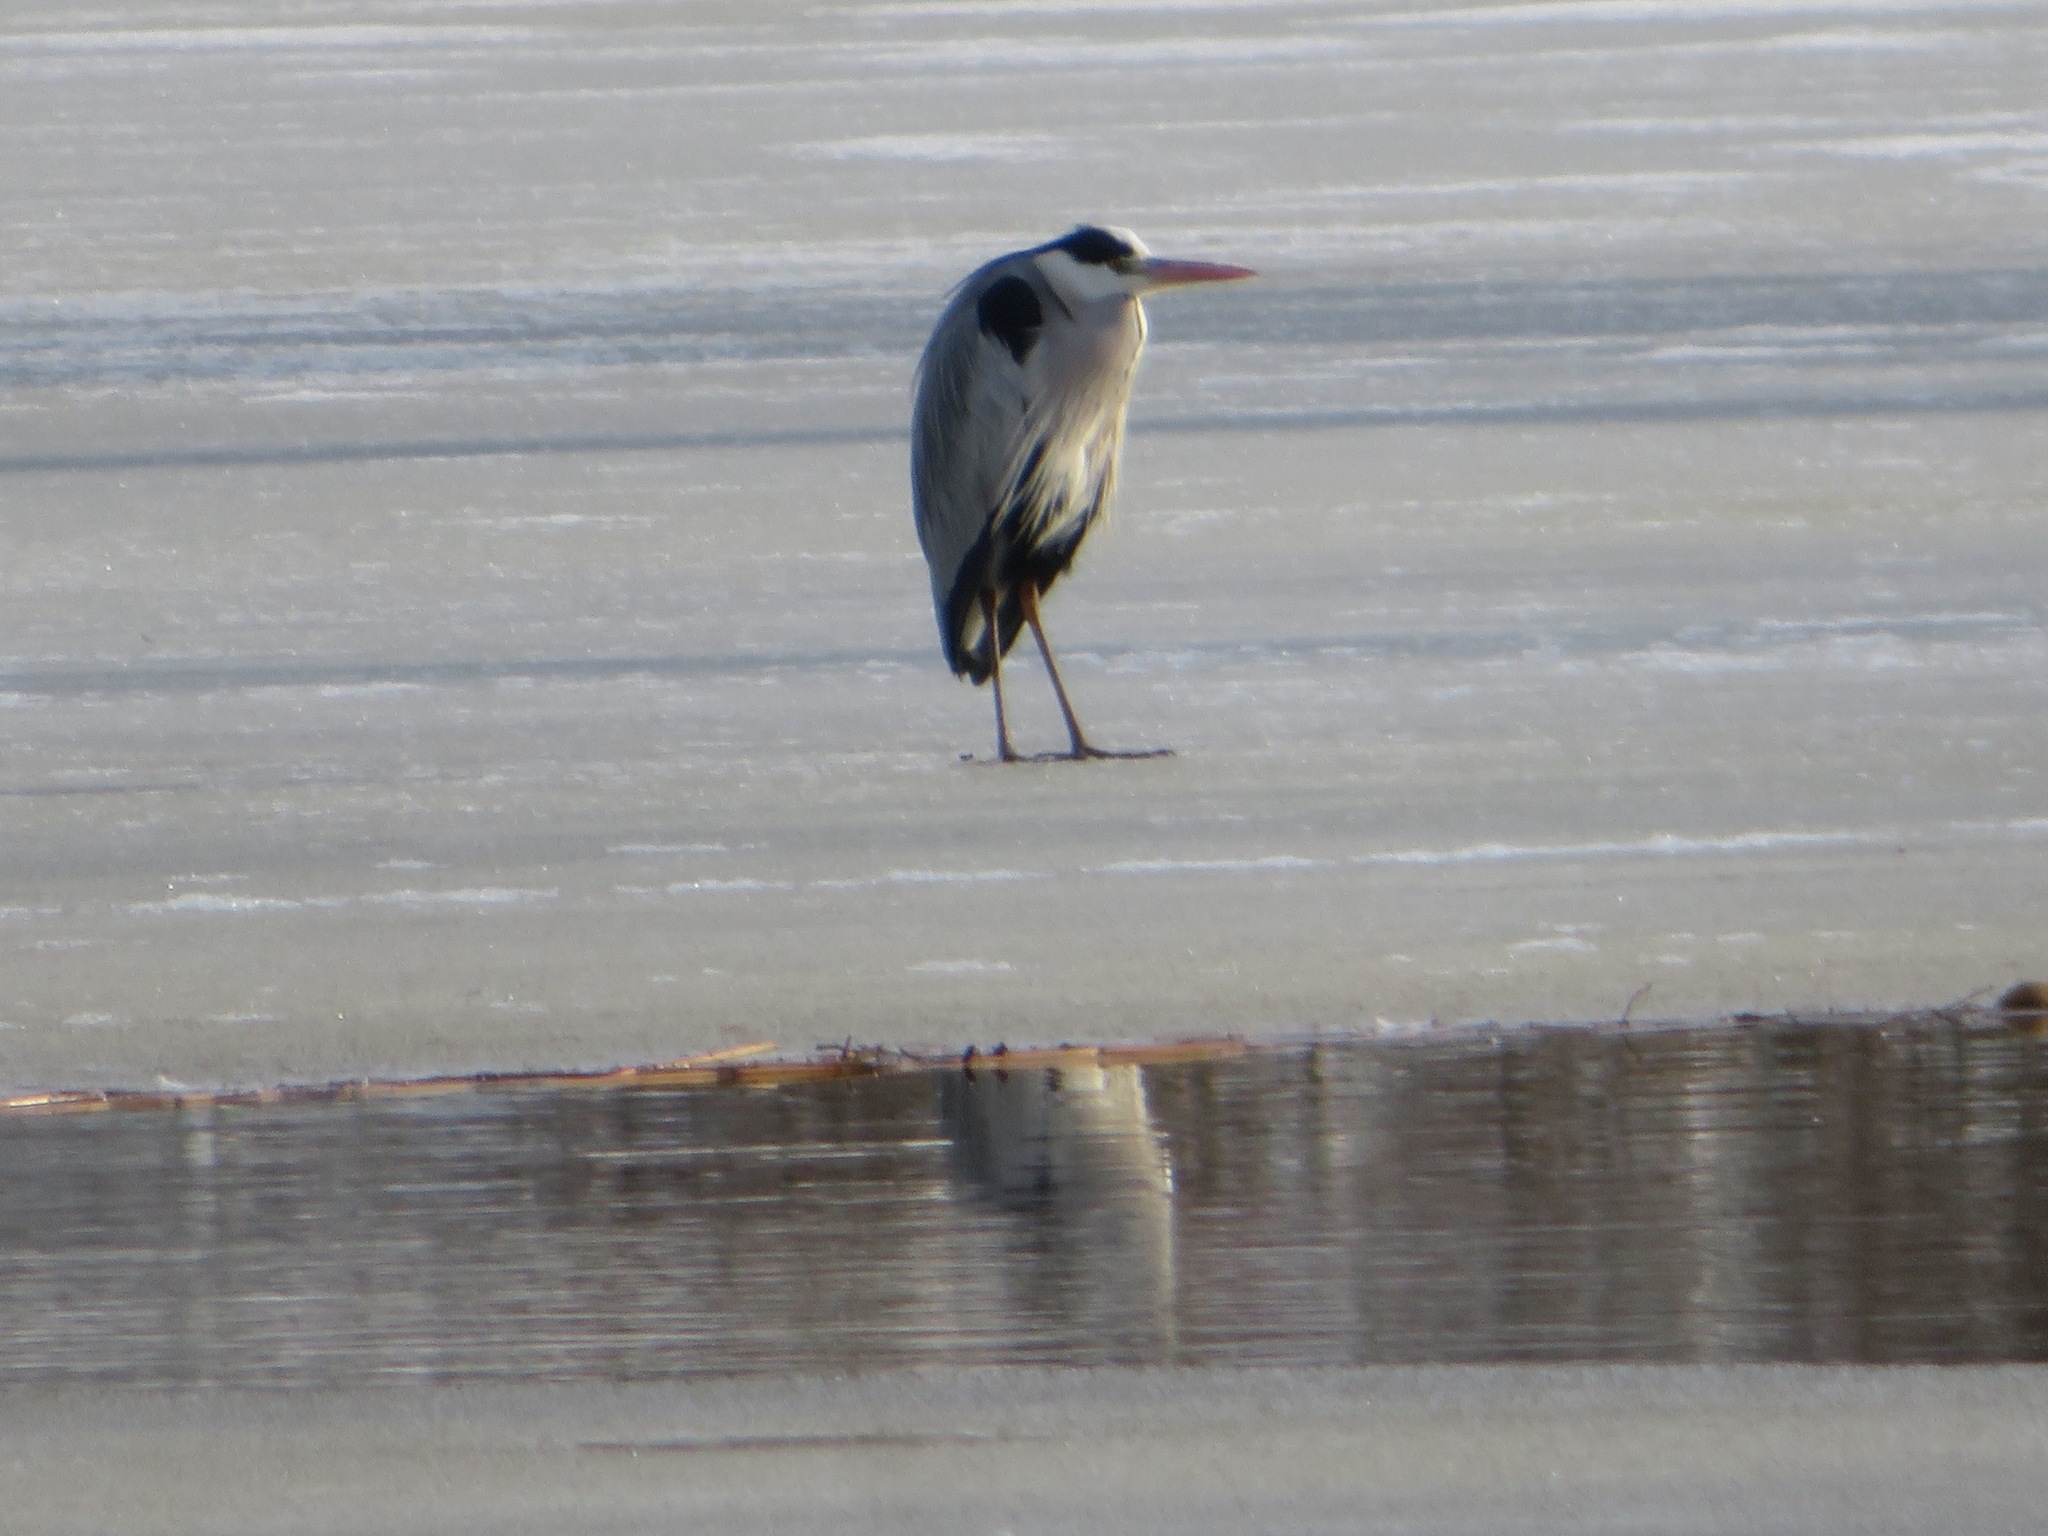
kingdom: Animalia
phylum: Chordata
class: Aves
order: Pelecaniformes
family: Ardeidae
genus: Ardea
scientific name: Ardea cinerea
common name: Grey heron
